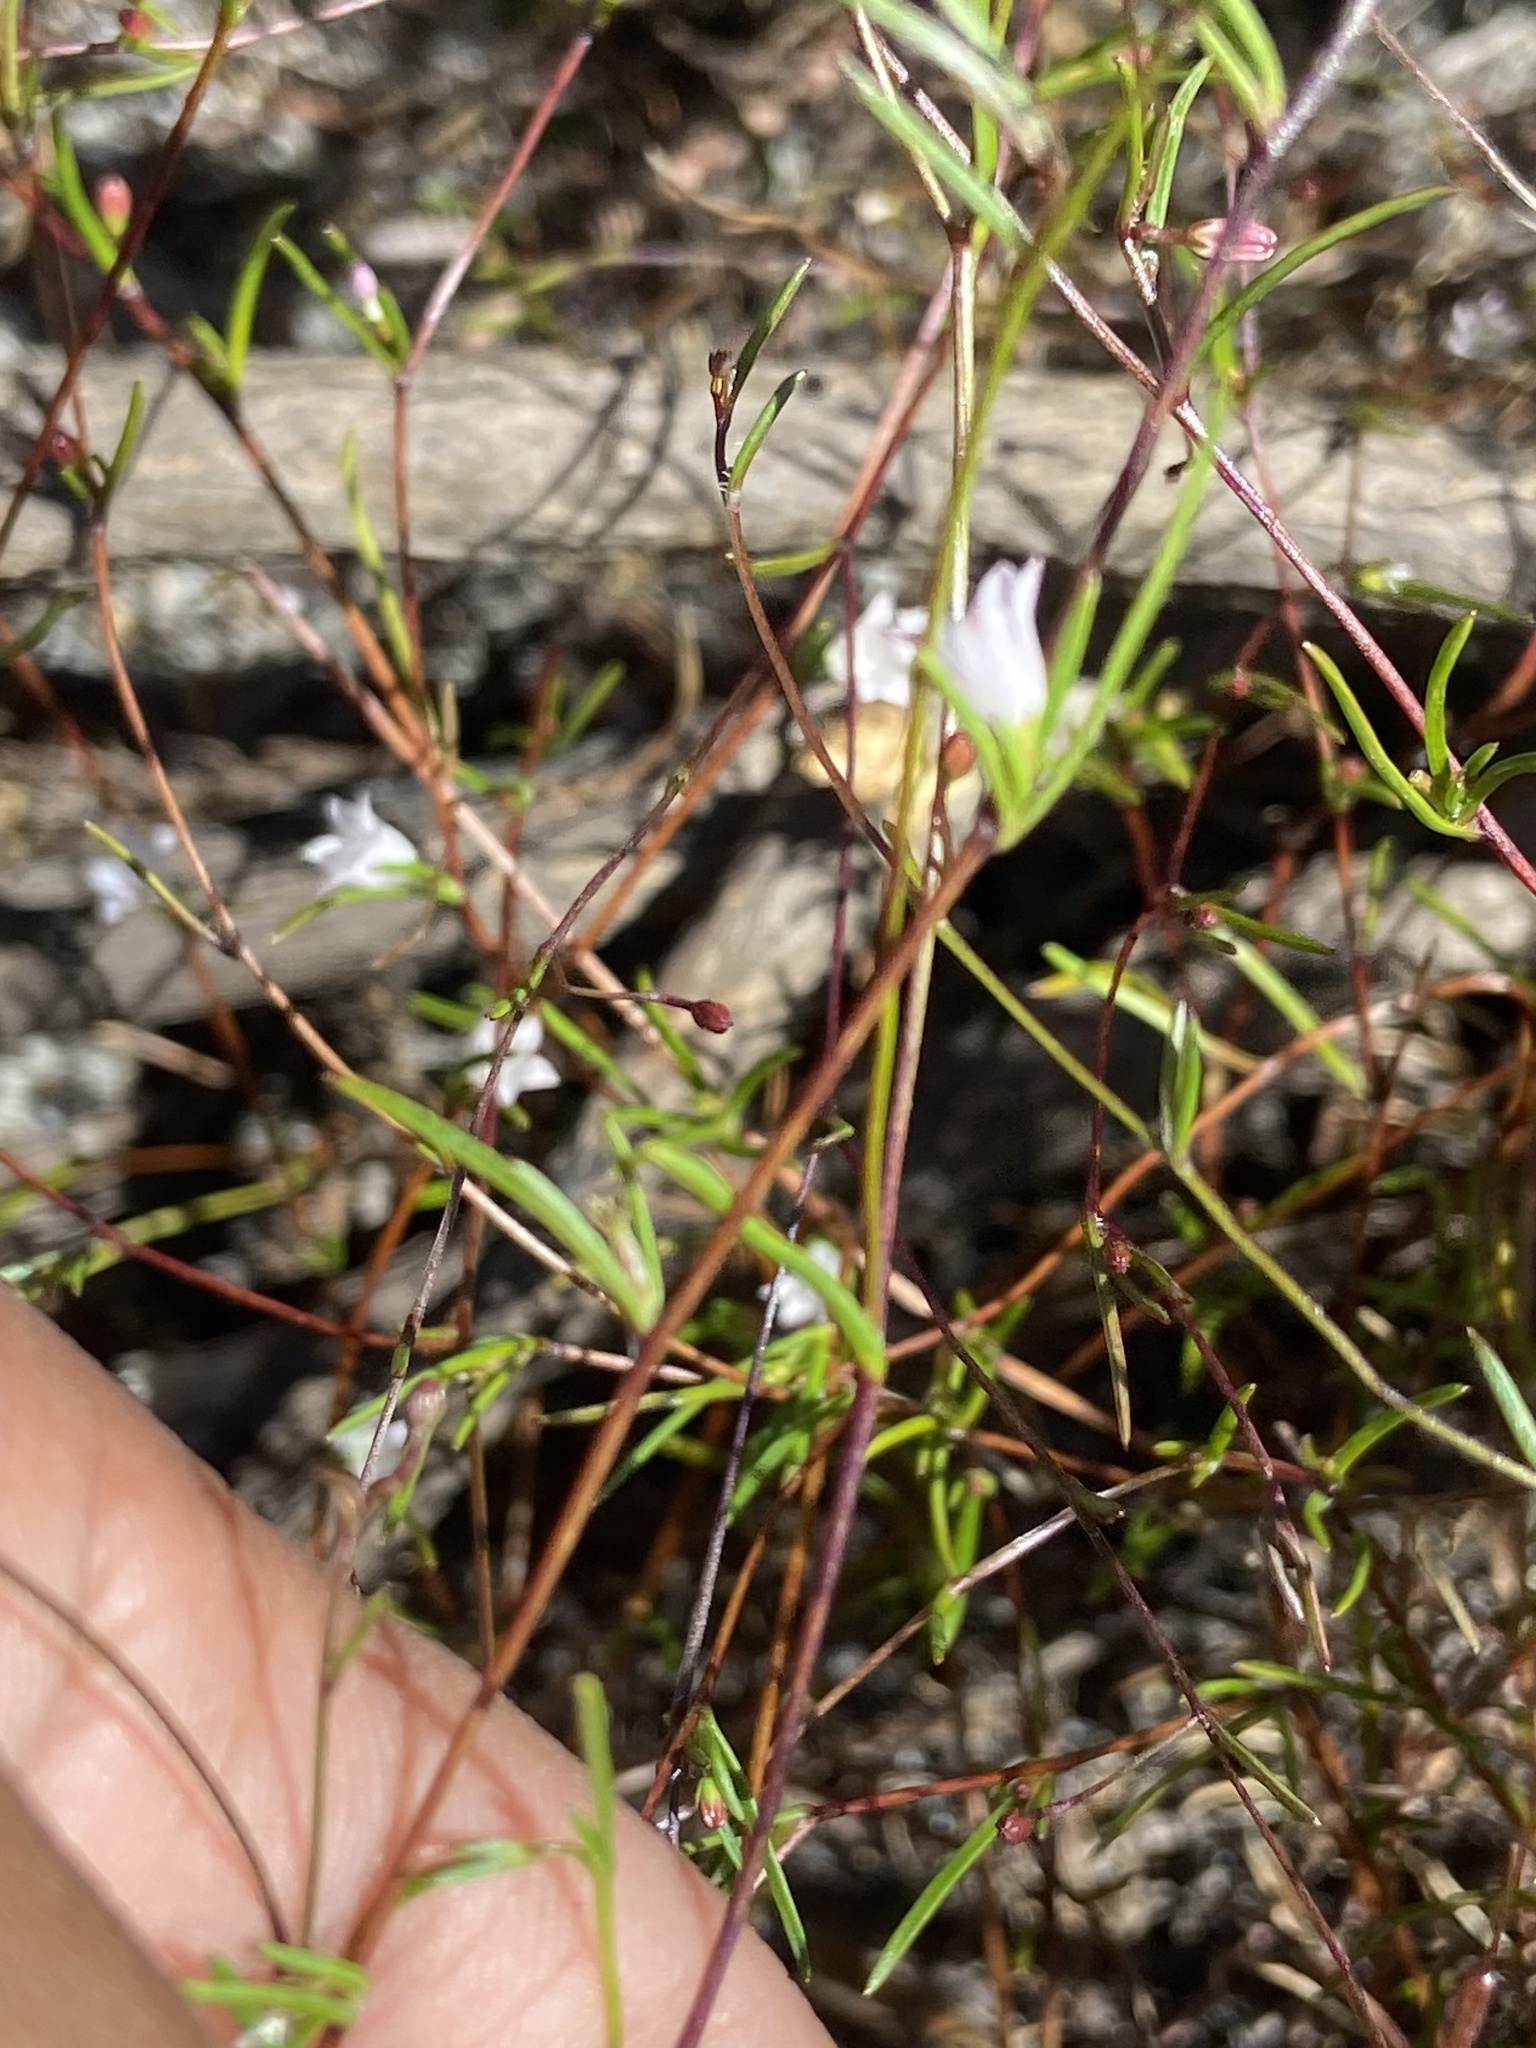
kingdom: Plantae
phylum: Tracheophyta
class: Magnoliopsida
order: Asterales
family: Campanulaceae
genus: Prismatocarpus
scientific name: Prismatocarpus sessilis
